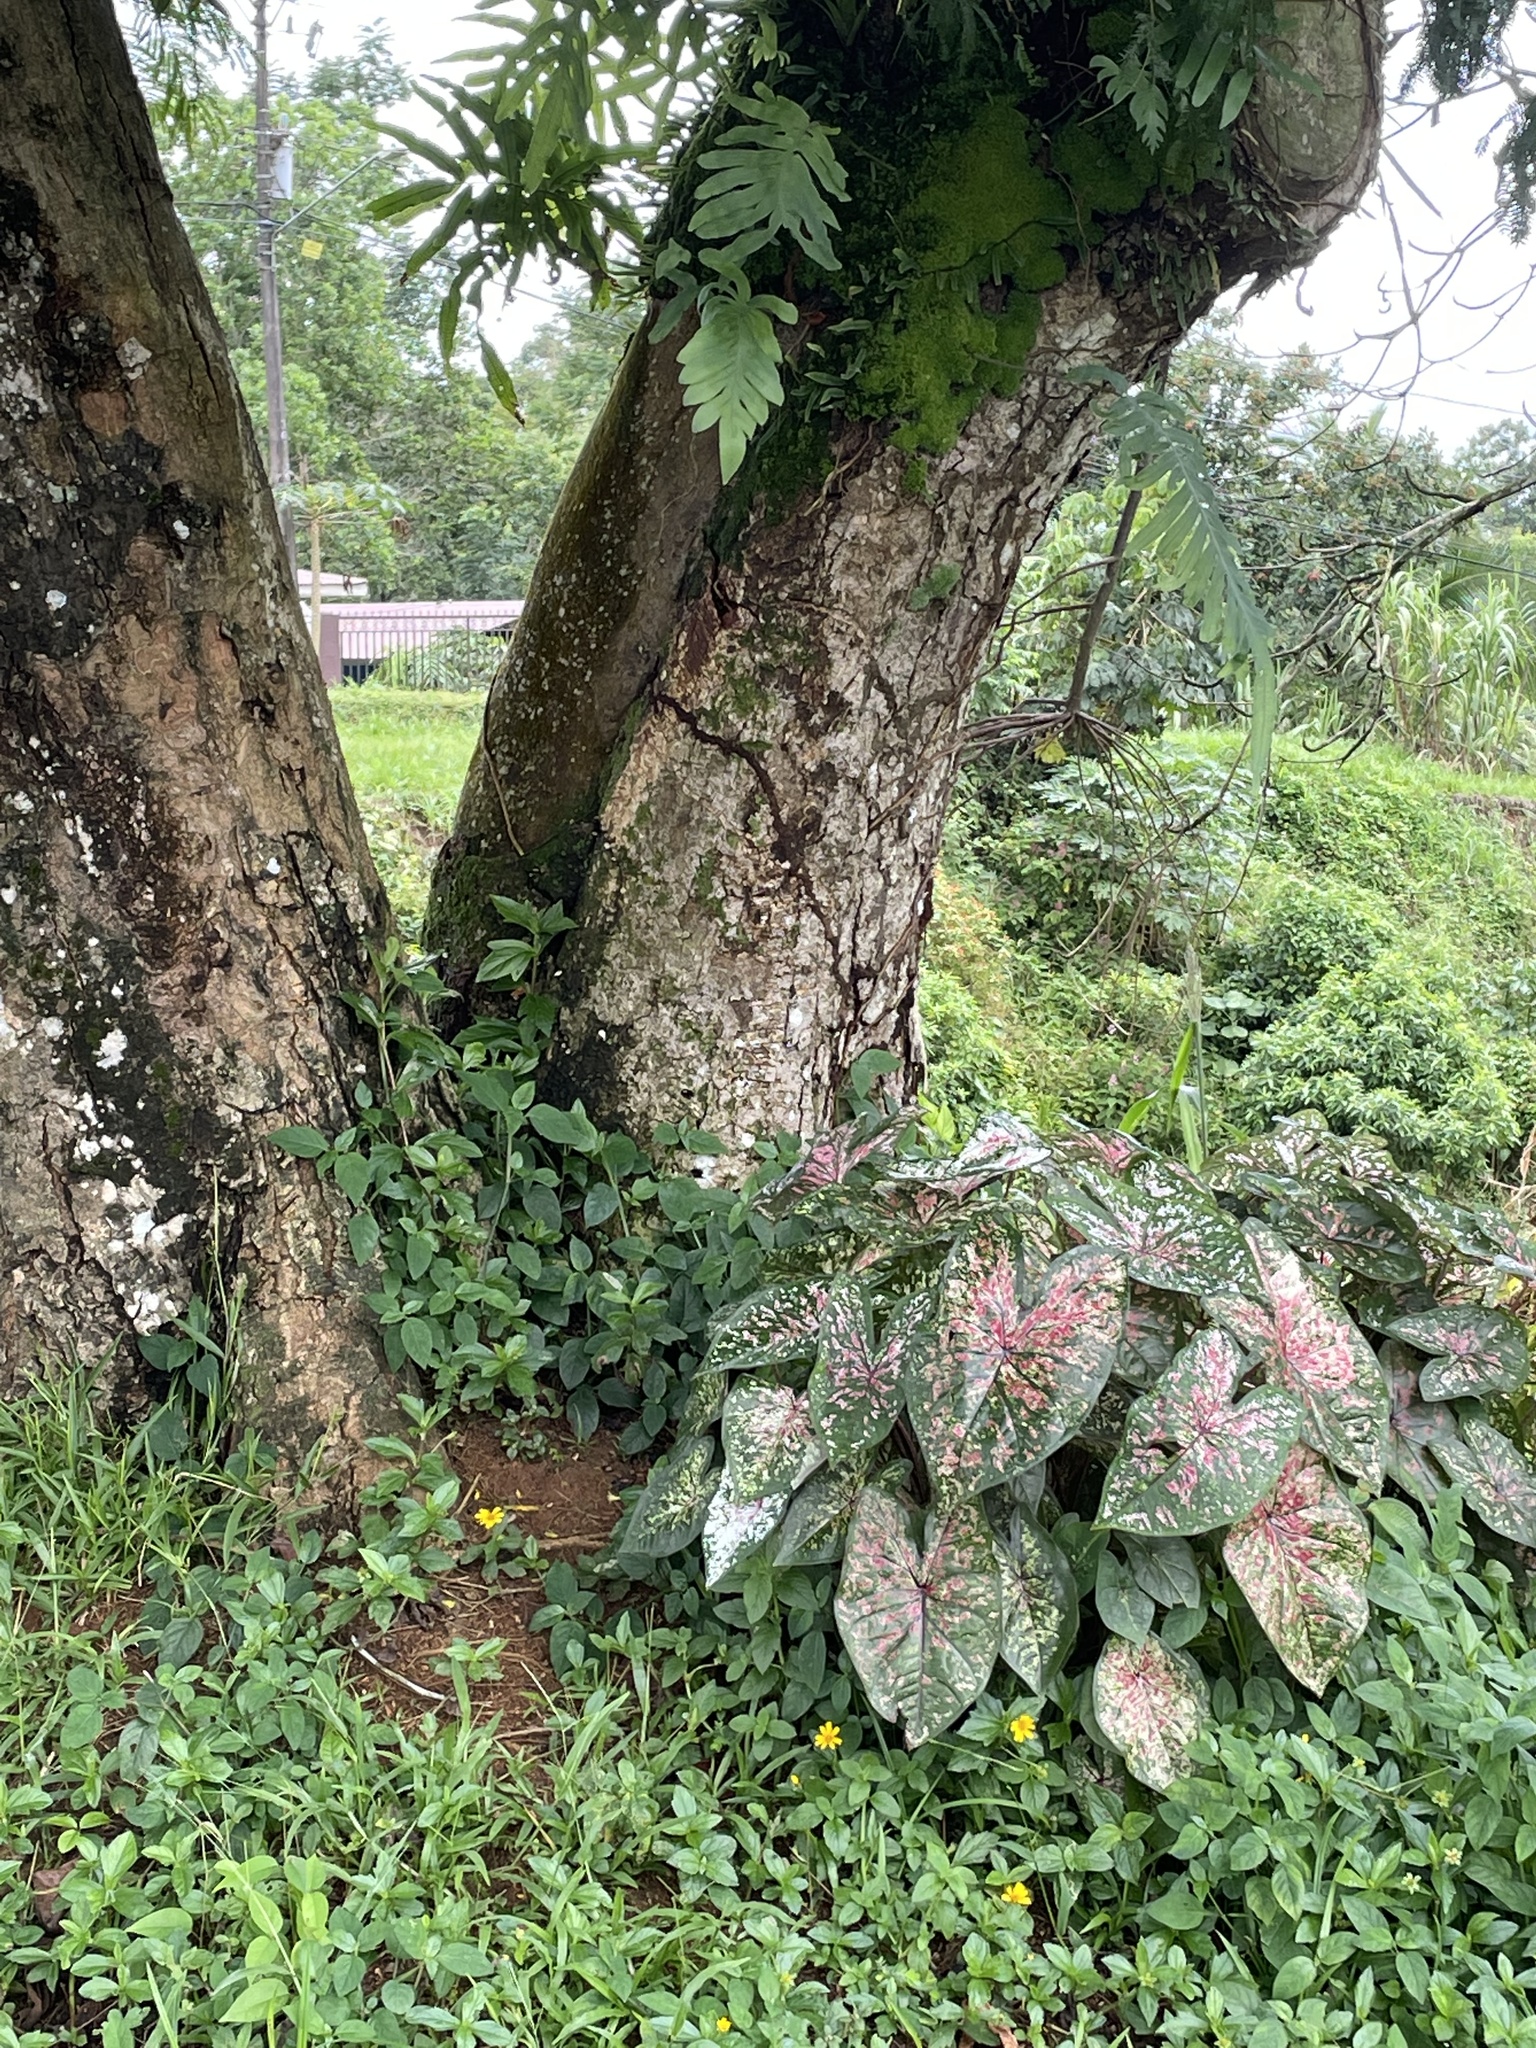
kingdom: Plantae
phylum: Tracheophyta
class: Liliopsida
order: Alismatales
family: Araceae
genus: Caladium
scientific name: Caladium bicolor
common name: Artist's pallet
